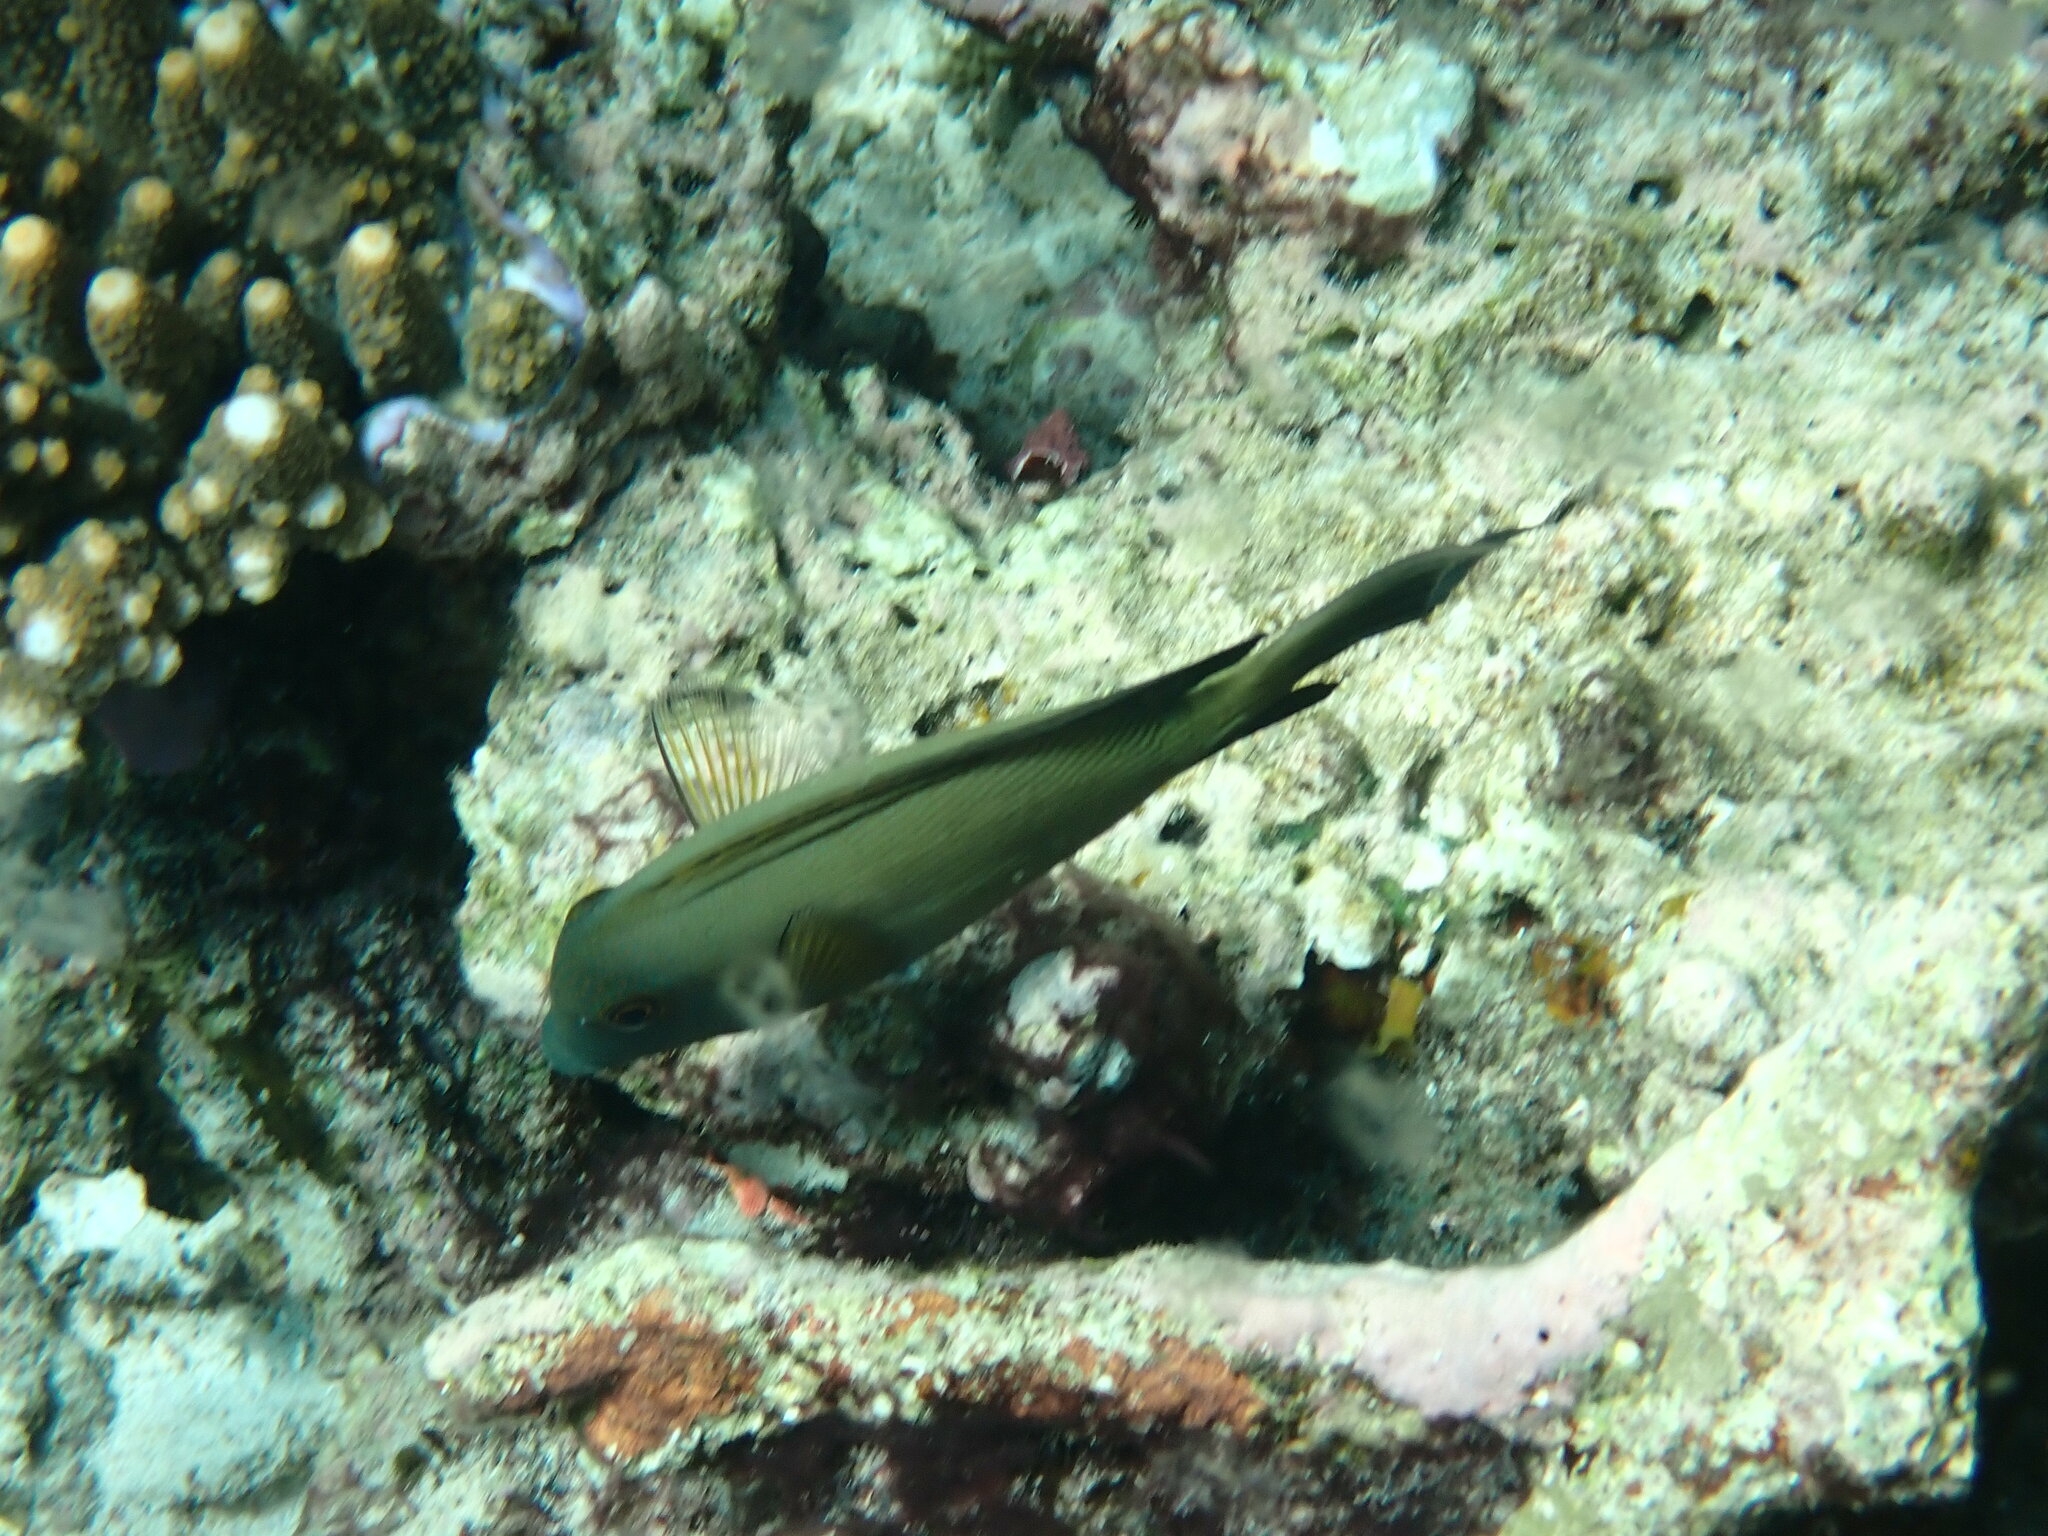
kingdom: Animalia
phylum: Chordata
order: Perciformes
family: Acanthuridae
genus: Ctenochaetus
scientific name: Ctenochaetus striatus
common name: Bristle-toothed surgeonfish
